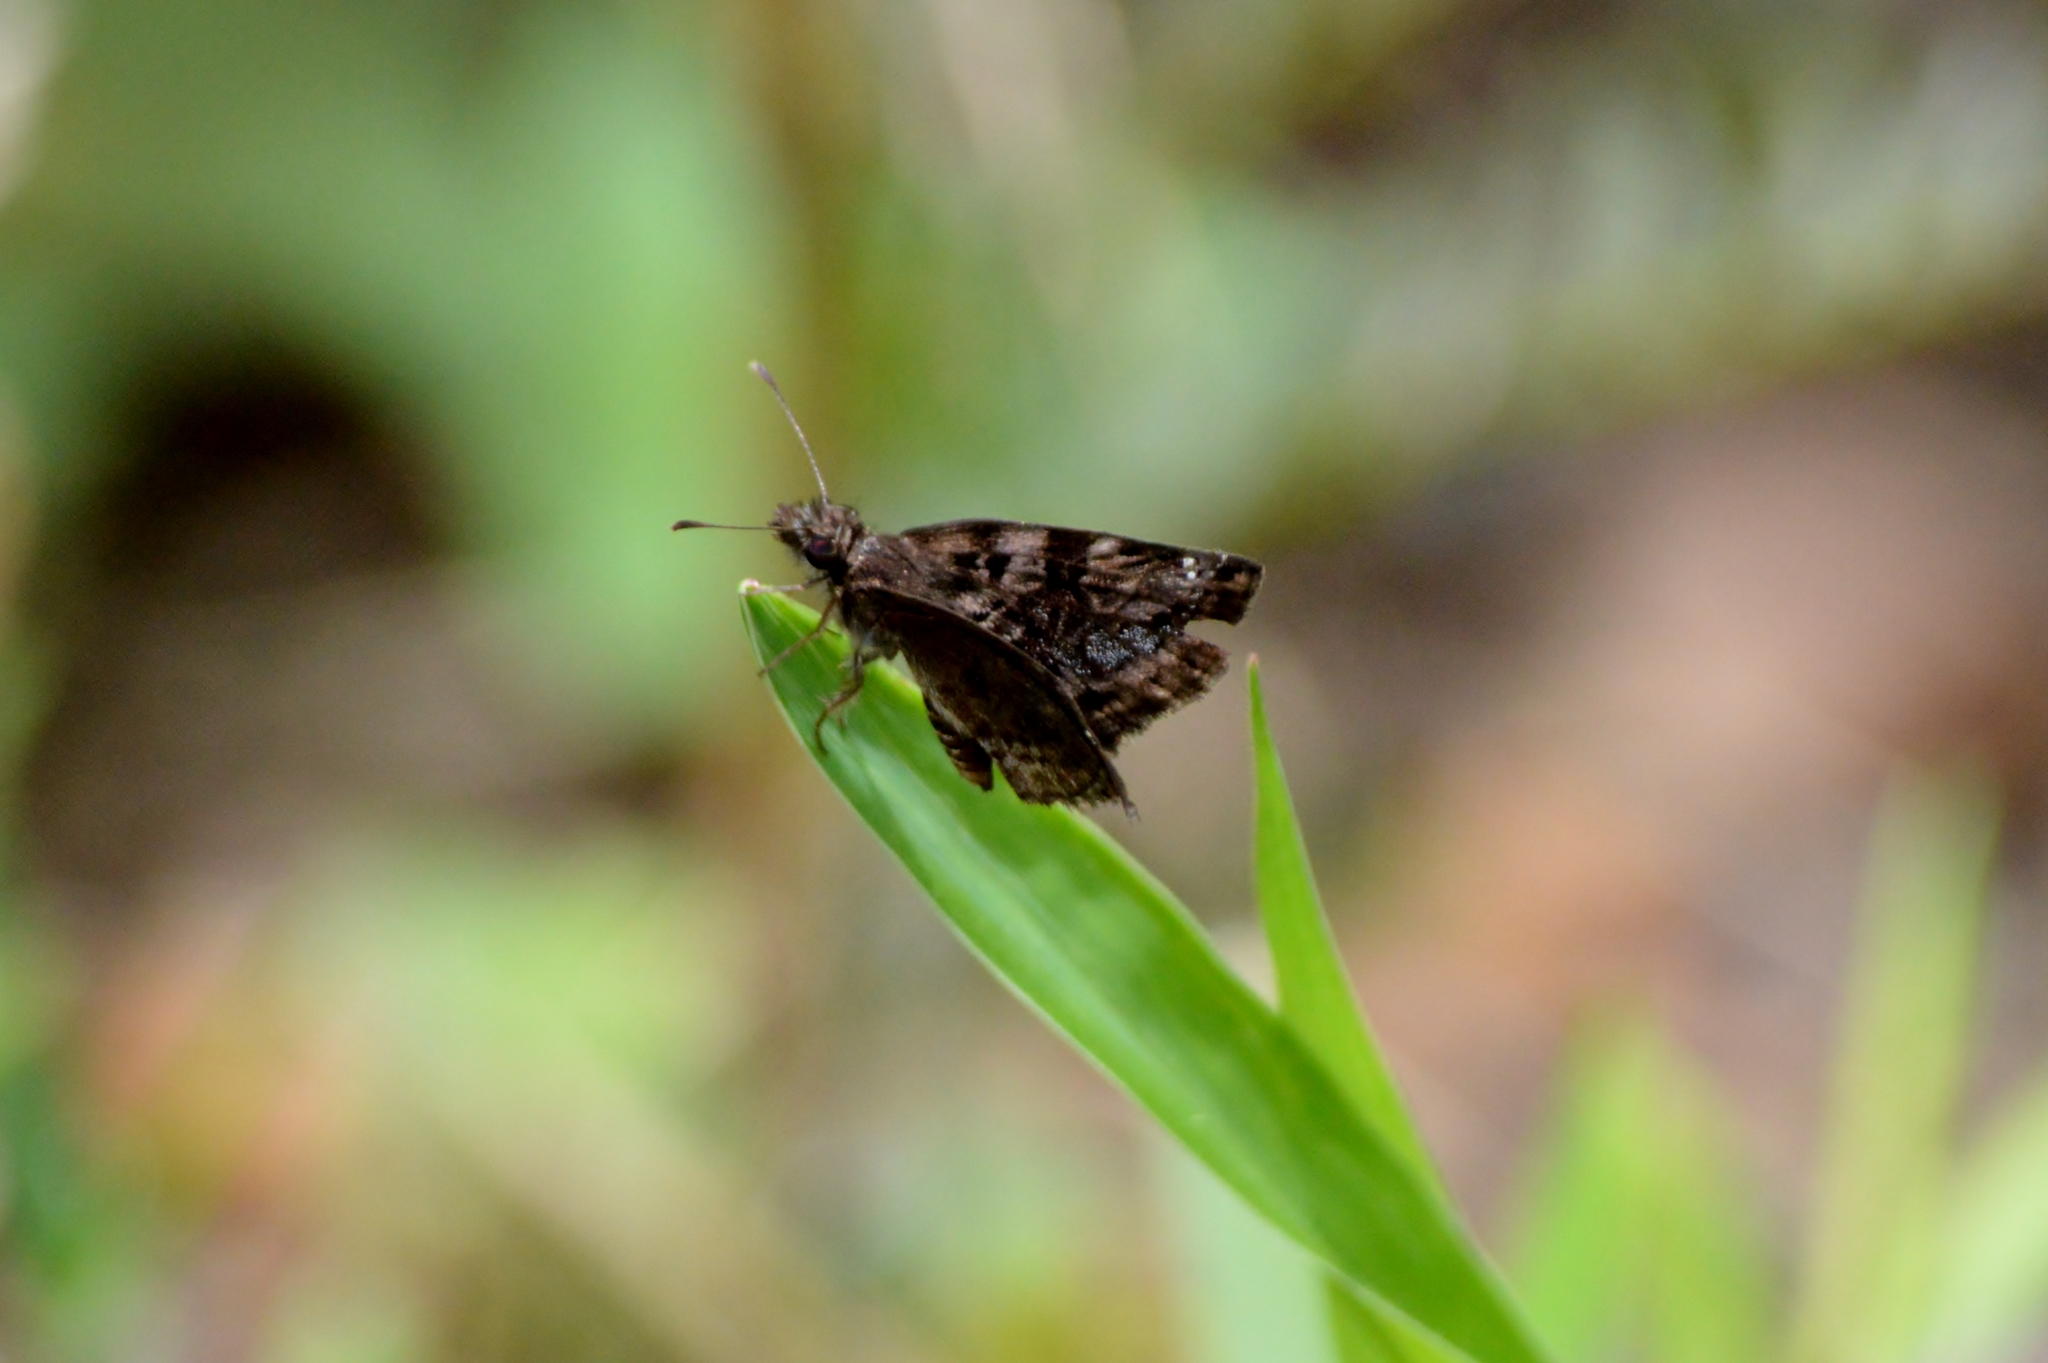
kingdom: Animalia
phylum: Arthropoda
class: Insecta
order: Lepidoptera
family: Hesperiidae
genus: Gorgythion
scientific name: Gorgythion begga
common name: Variegated skipper
